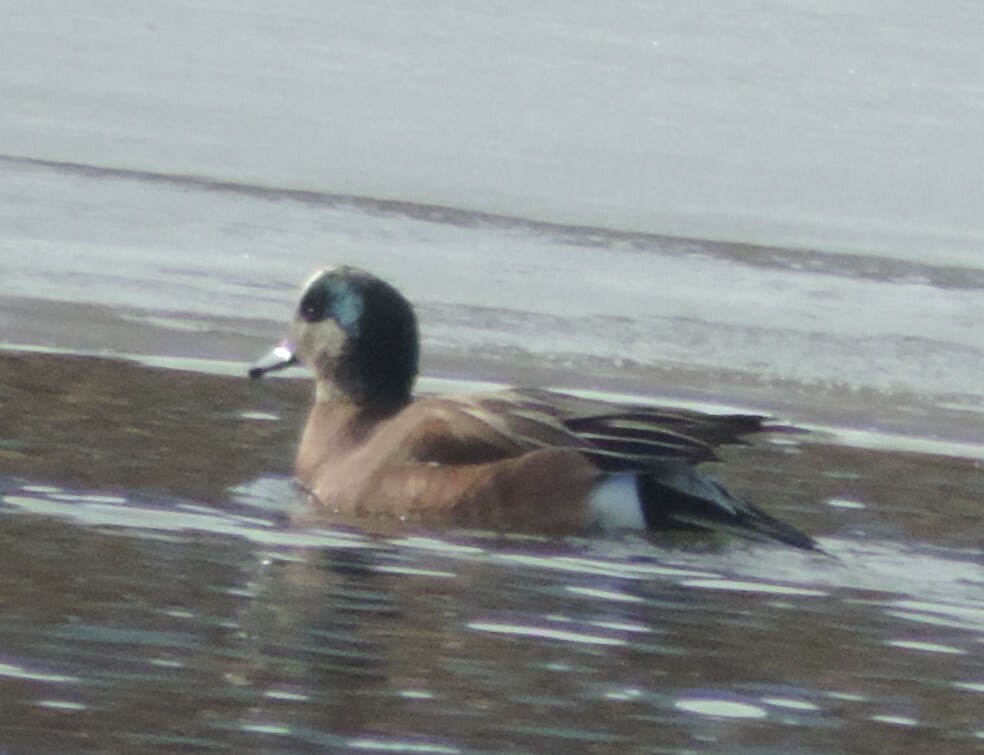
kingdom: Animalia
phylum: Chordata
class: Aves
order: Anseriformes
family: Anatidae
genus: Mareca
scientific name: Mareca americana
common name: American wigeon
